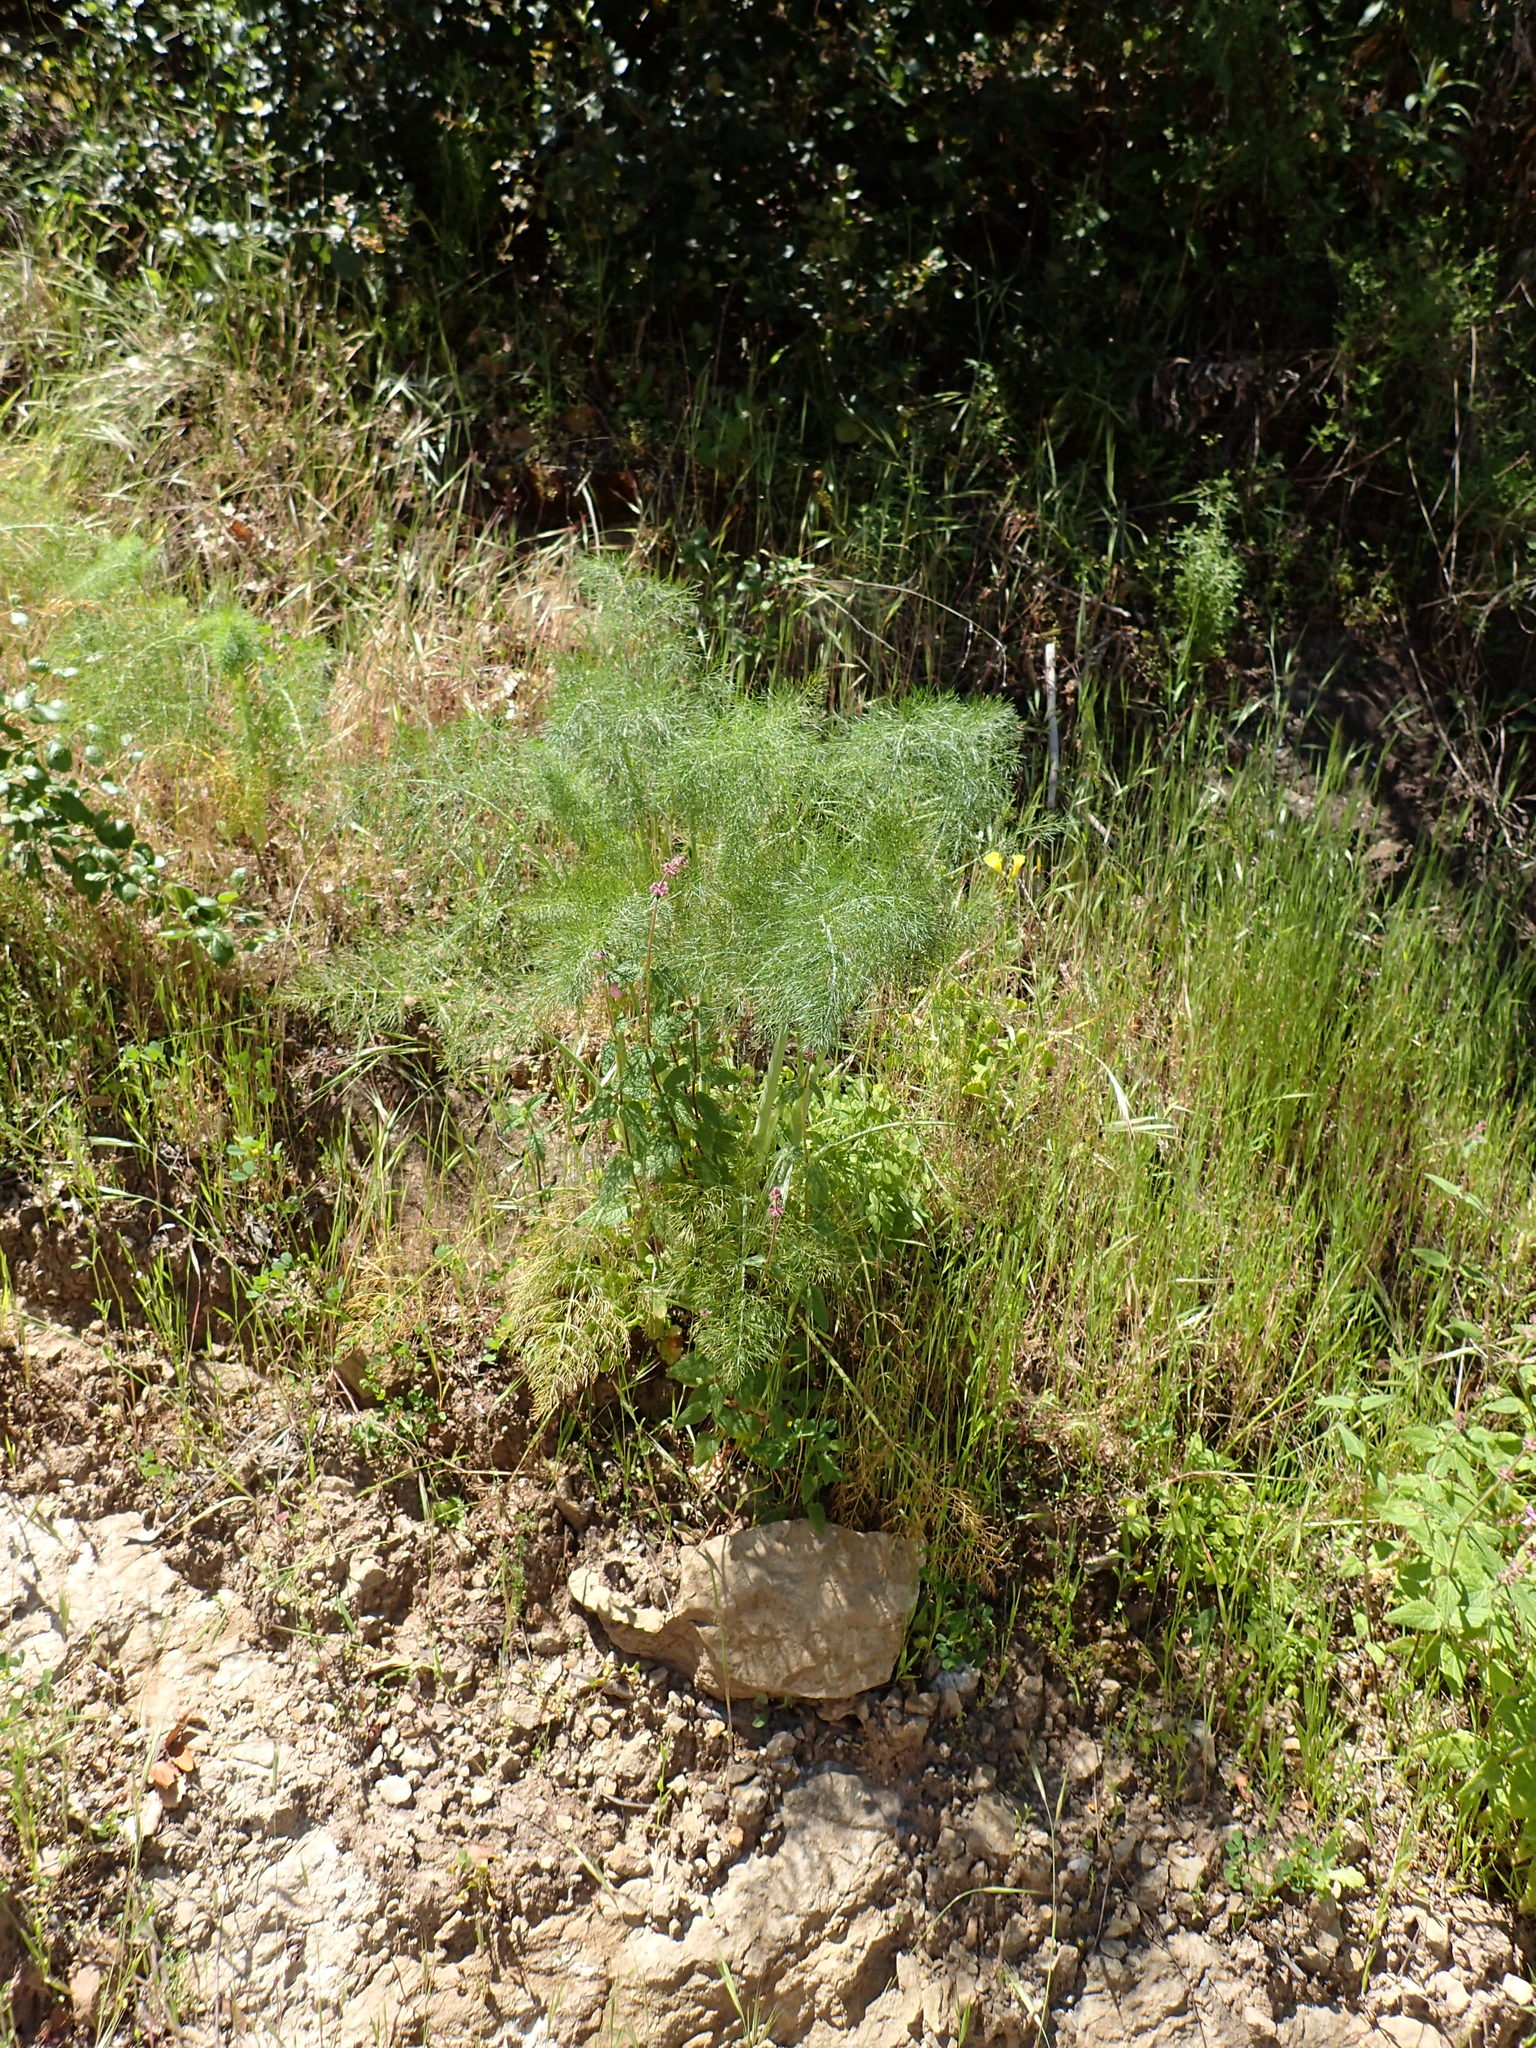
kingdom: Plantae
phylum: Tracheophyta
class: Magnoliopsida
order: Apiales
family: Apiaceae
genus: Foeniculum
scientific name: Foeniculum vulgare
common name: Fennel
